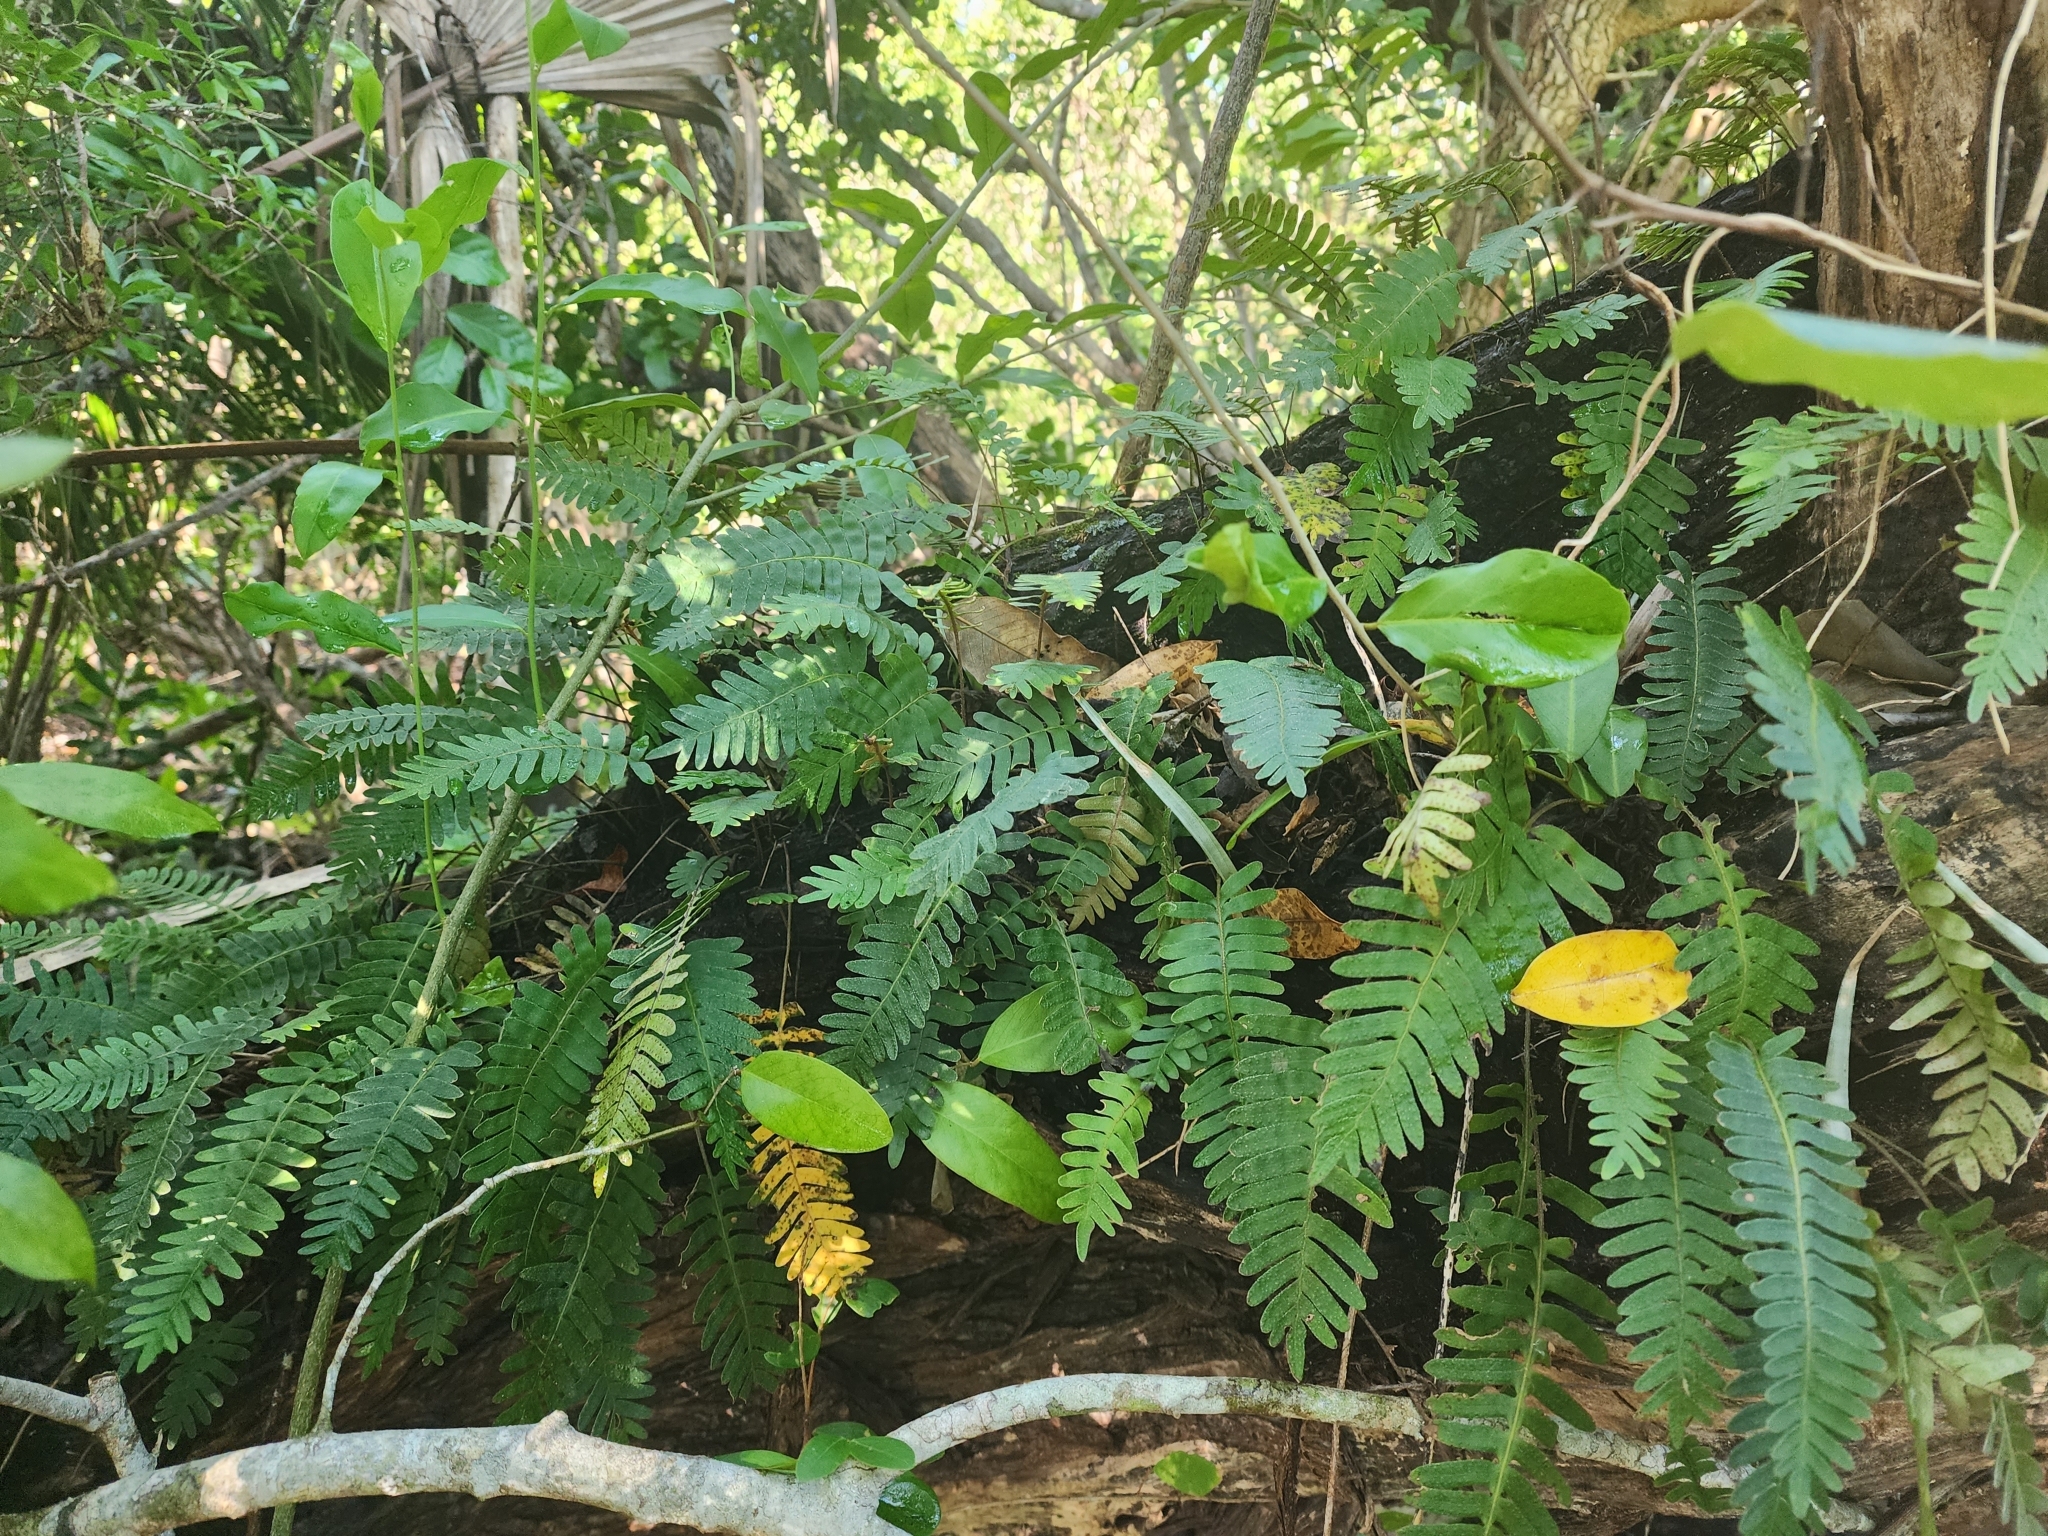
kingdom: Plantae
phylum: Tracheophyta
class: Polypodiopsida
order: Polypodiales
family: Polypodiaceae
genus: Pleopeltis
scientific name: Pleopeltis michauxiana
